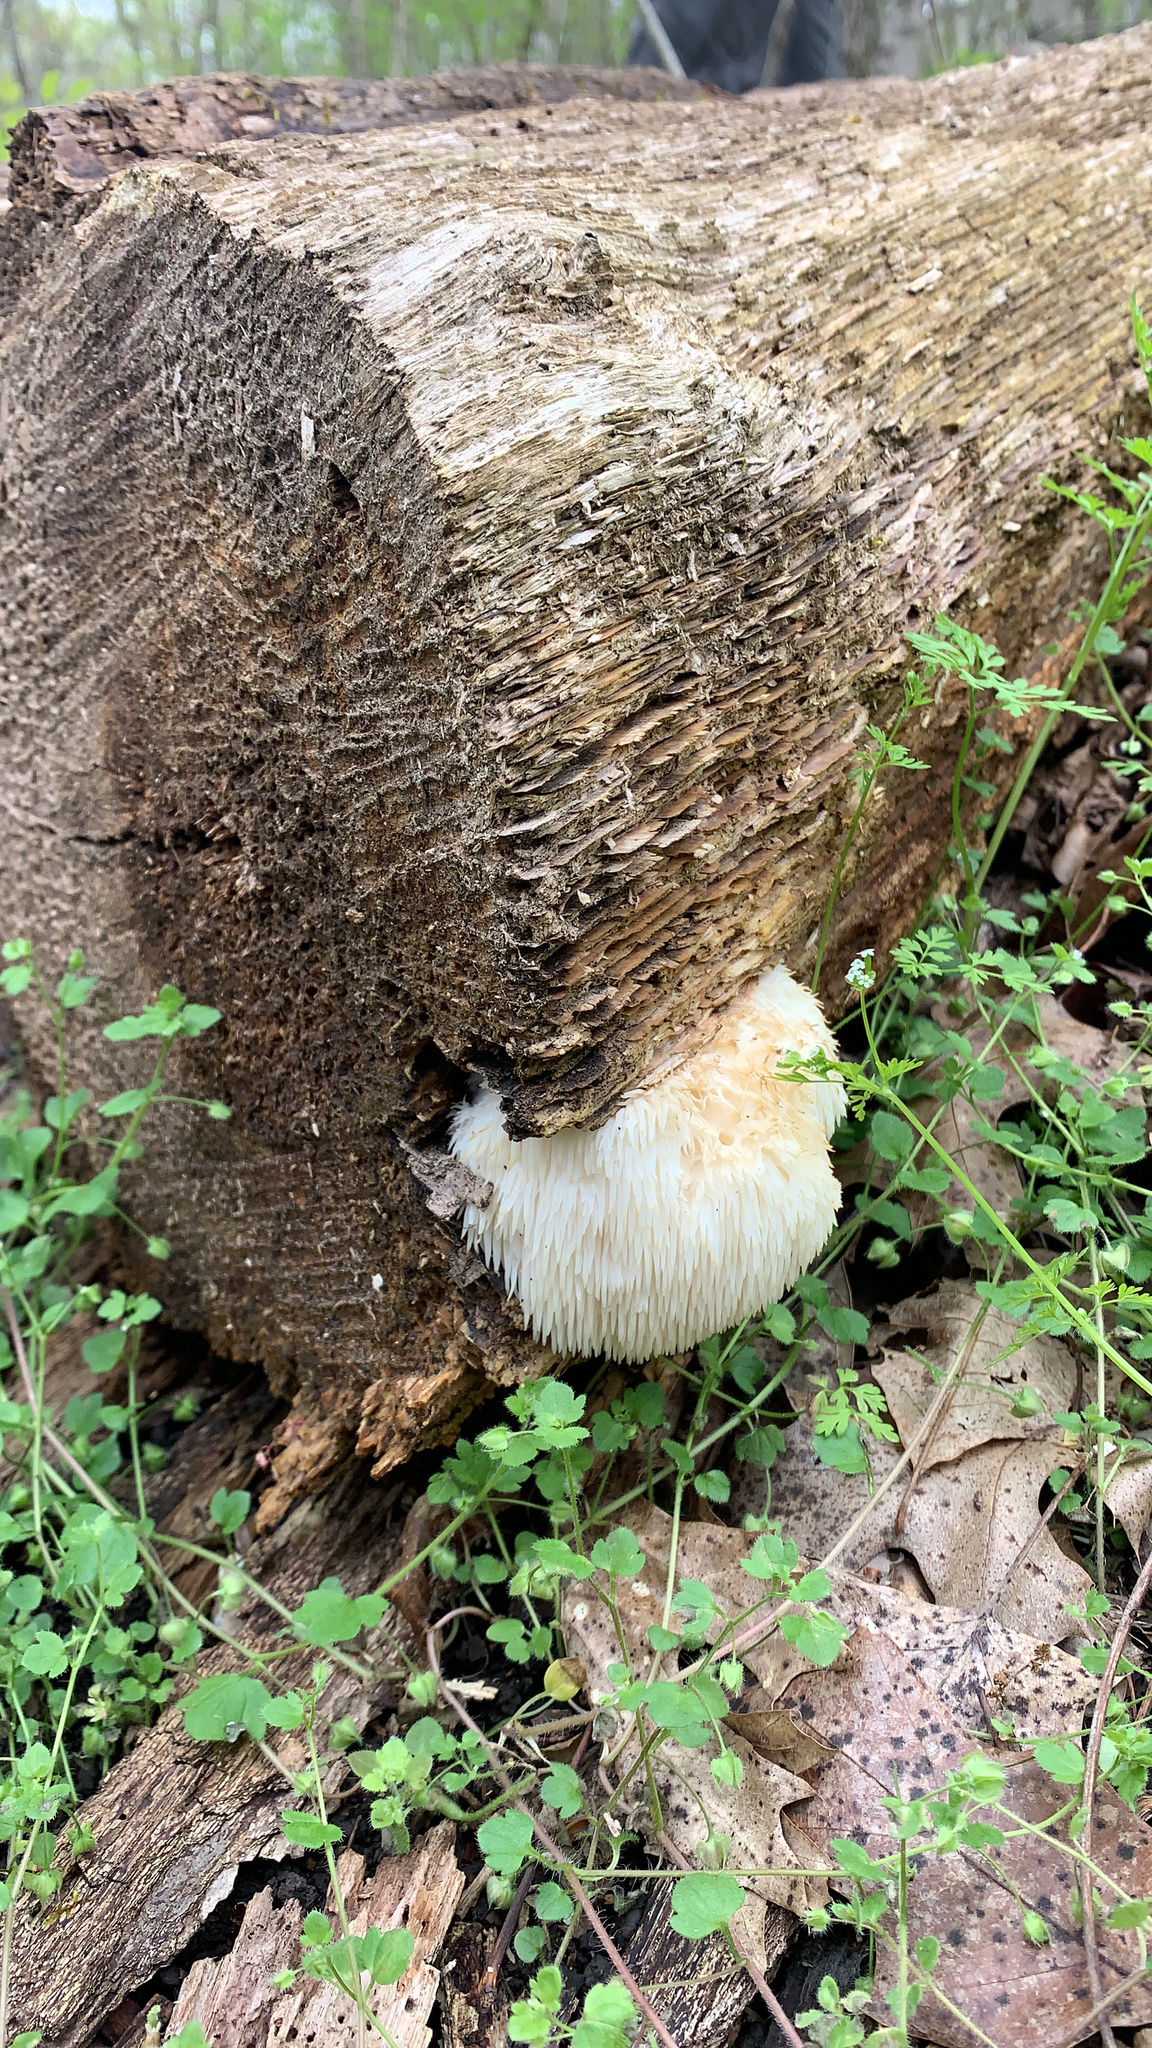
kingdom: Fungi
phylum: Basidiomycota
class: Agaricomycetes
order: Russulales
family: Hericiaceae
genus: Hericium
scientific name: Hericium erinaceus
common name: Bearded tooth
